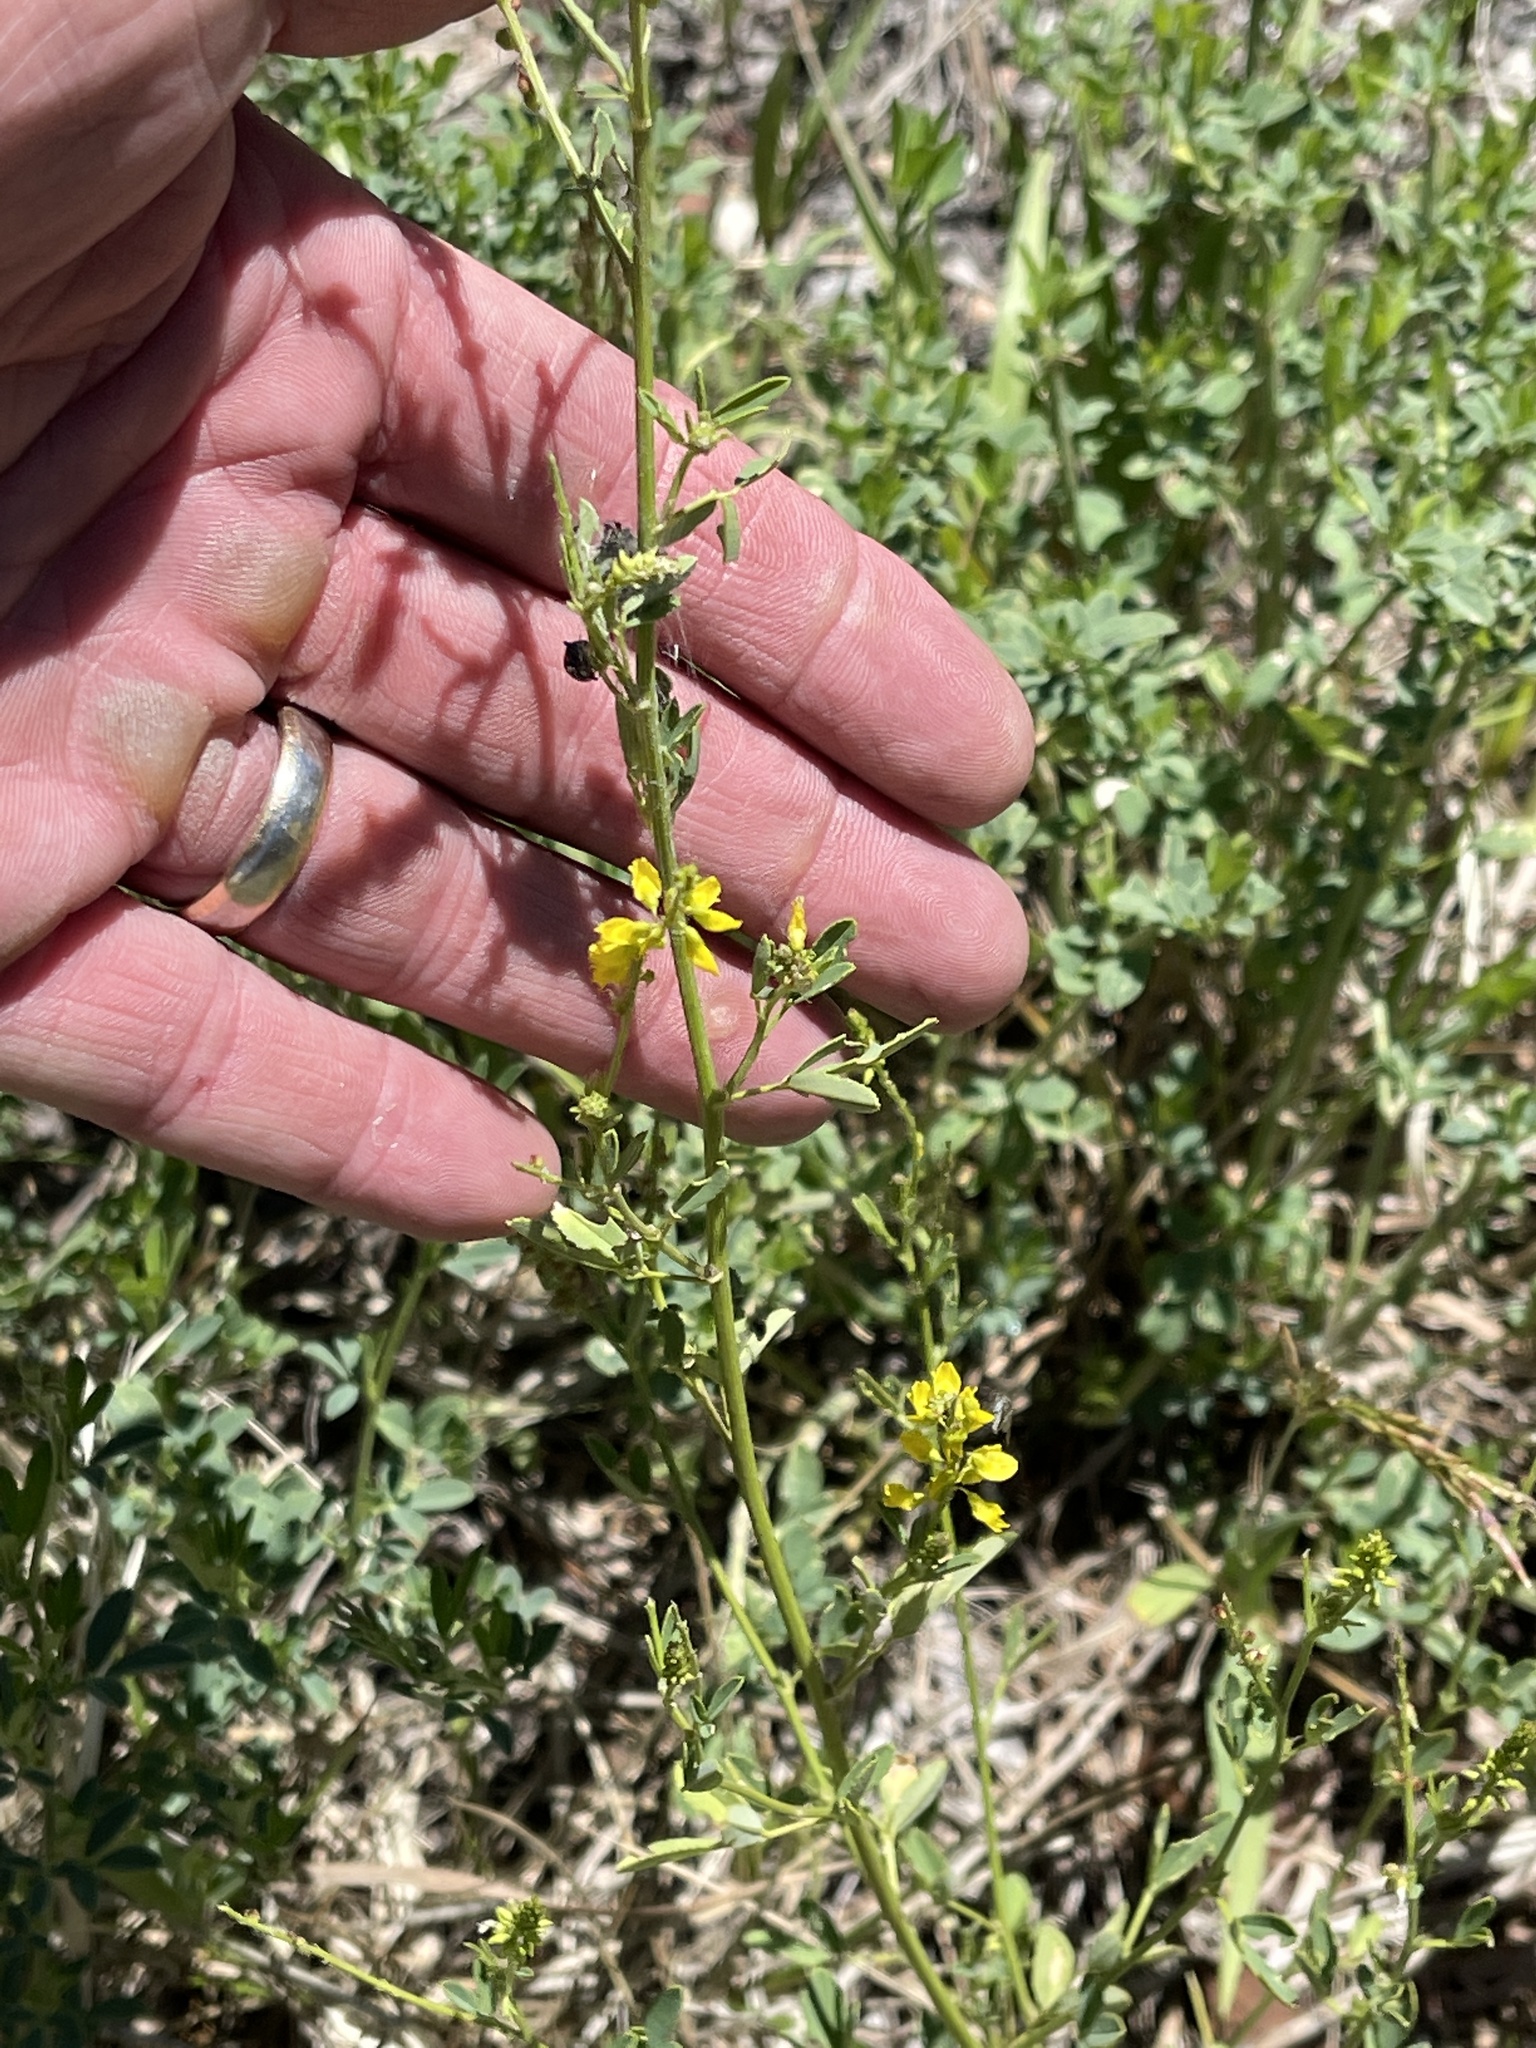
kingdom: Plantae
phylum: Tracheophyta
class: Magnoliopsida
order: Fabales
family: Fabaceae
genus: Melilotus
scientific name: Melilotus officinalis
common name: Sweetclover
